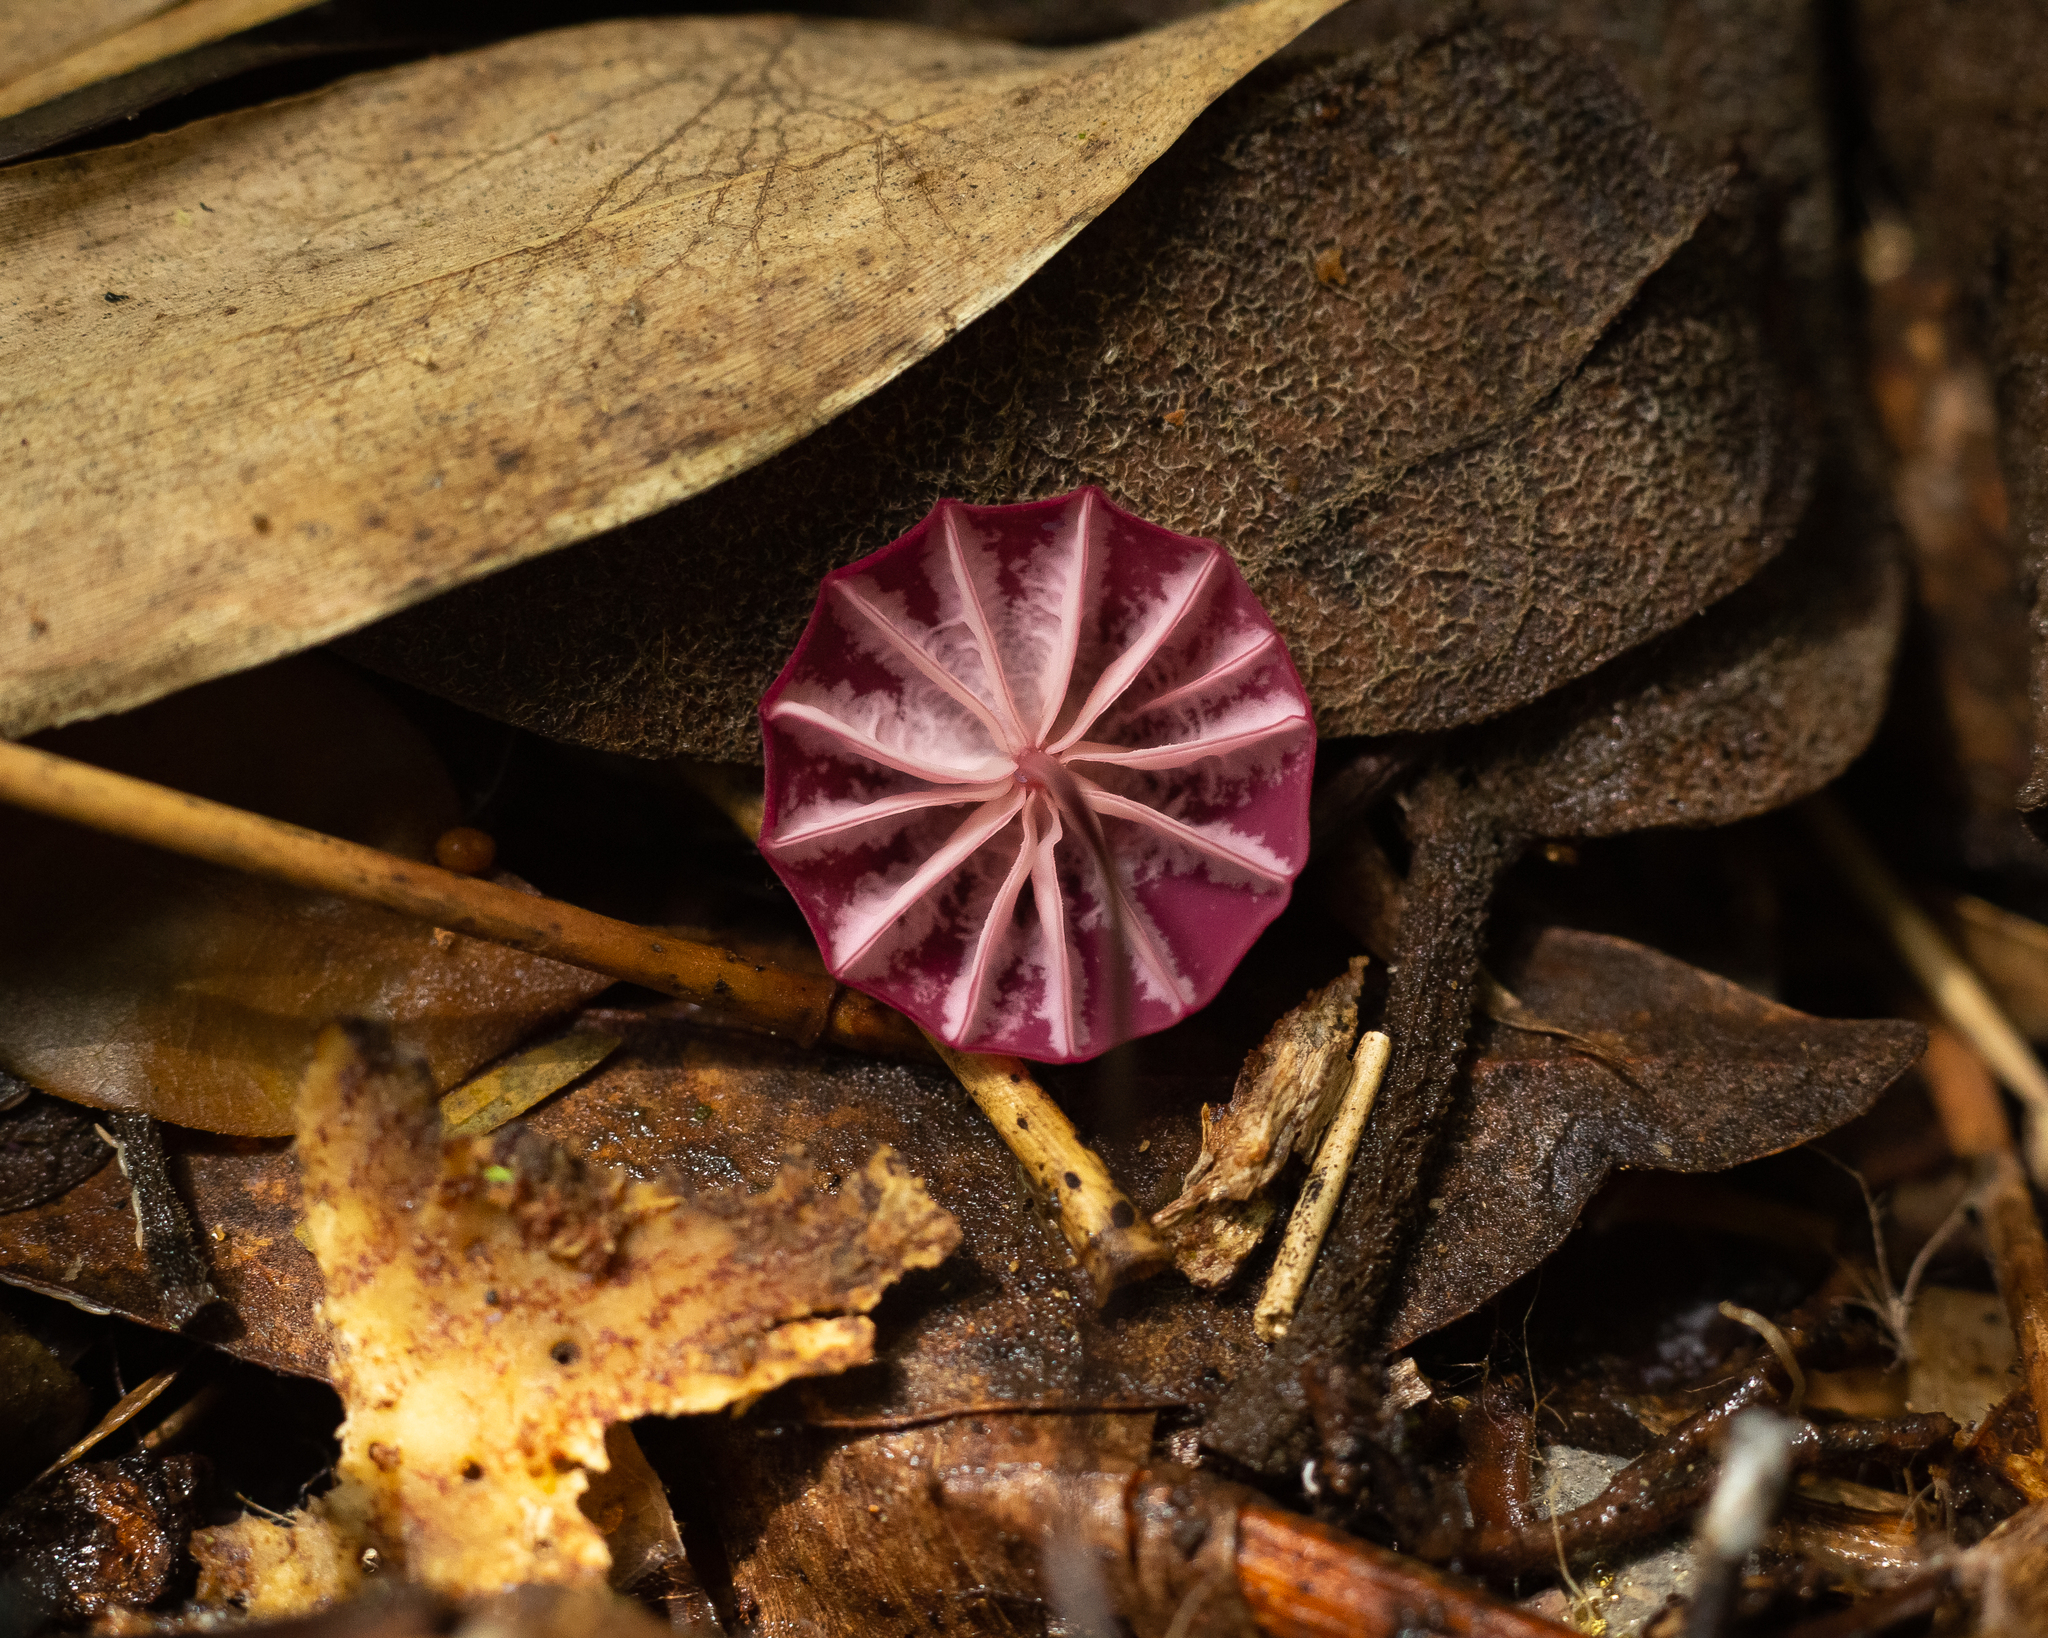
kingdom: Fungi
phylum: Basidiomycota
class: Agaricomycetes
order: Agaricales
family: Marasmiaceae
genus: Marasmius
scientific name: Marasmius haematocephalus
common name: Purple pinwheel
